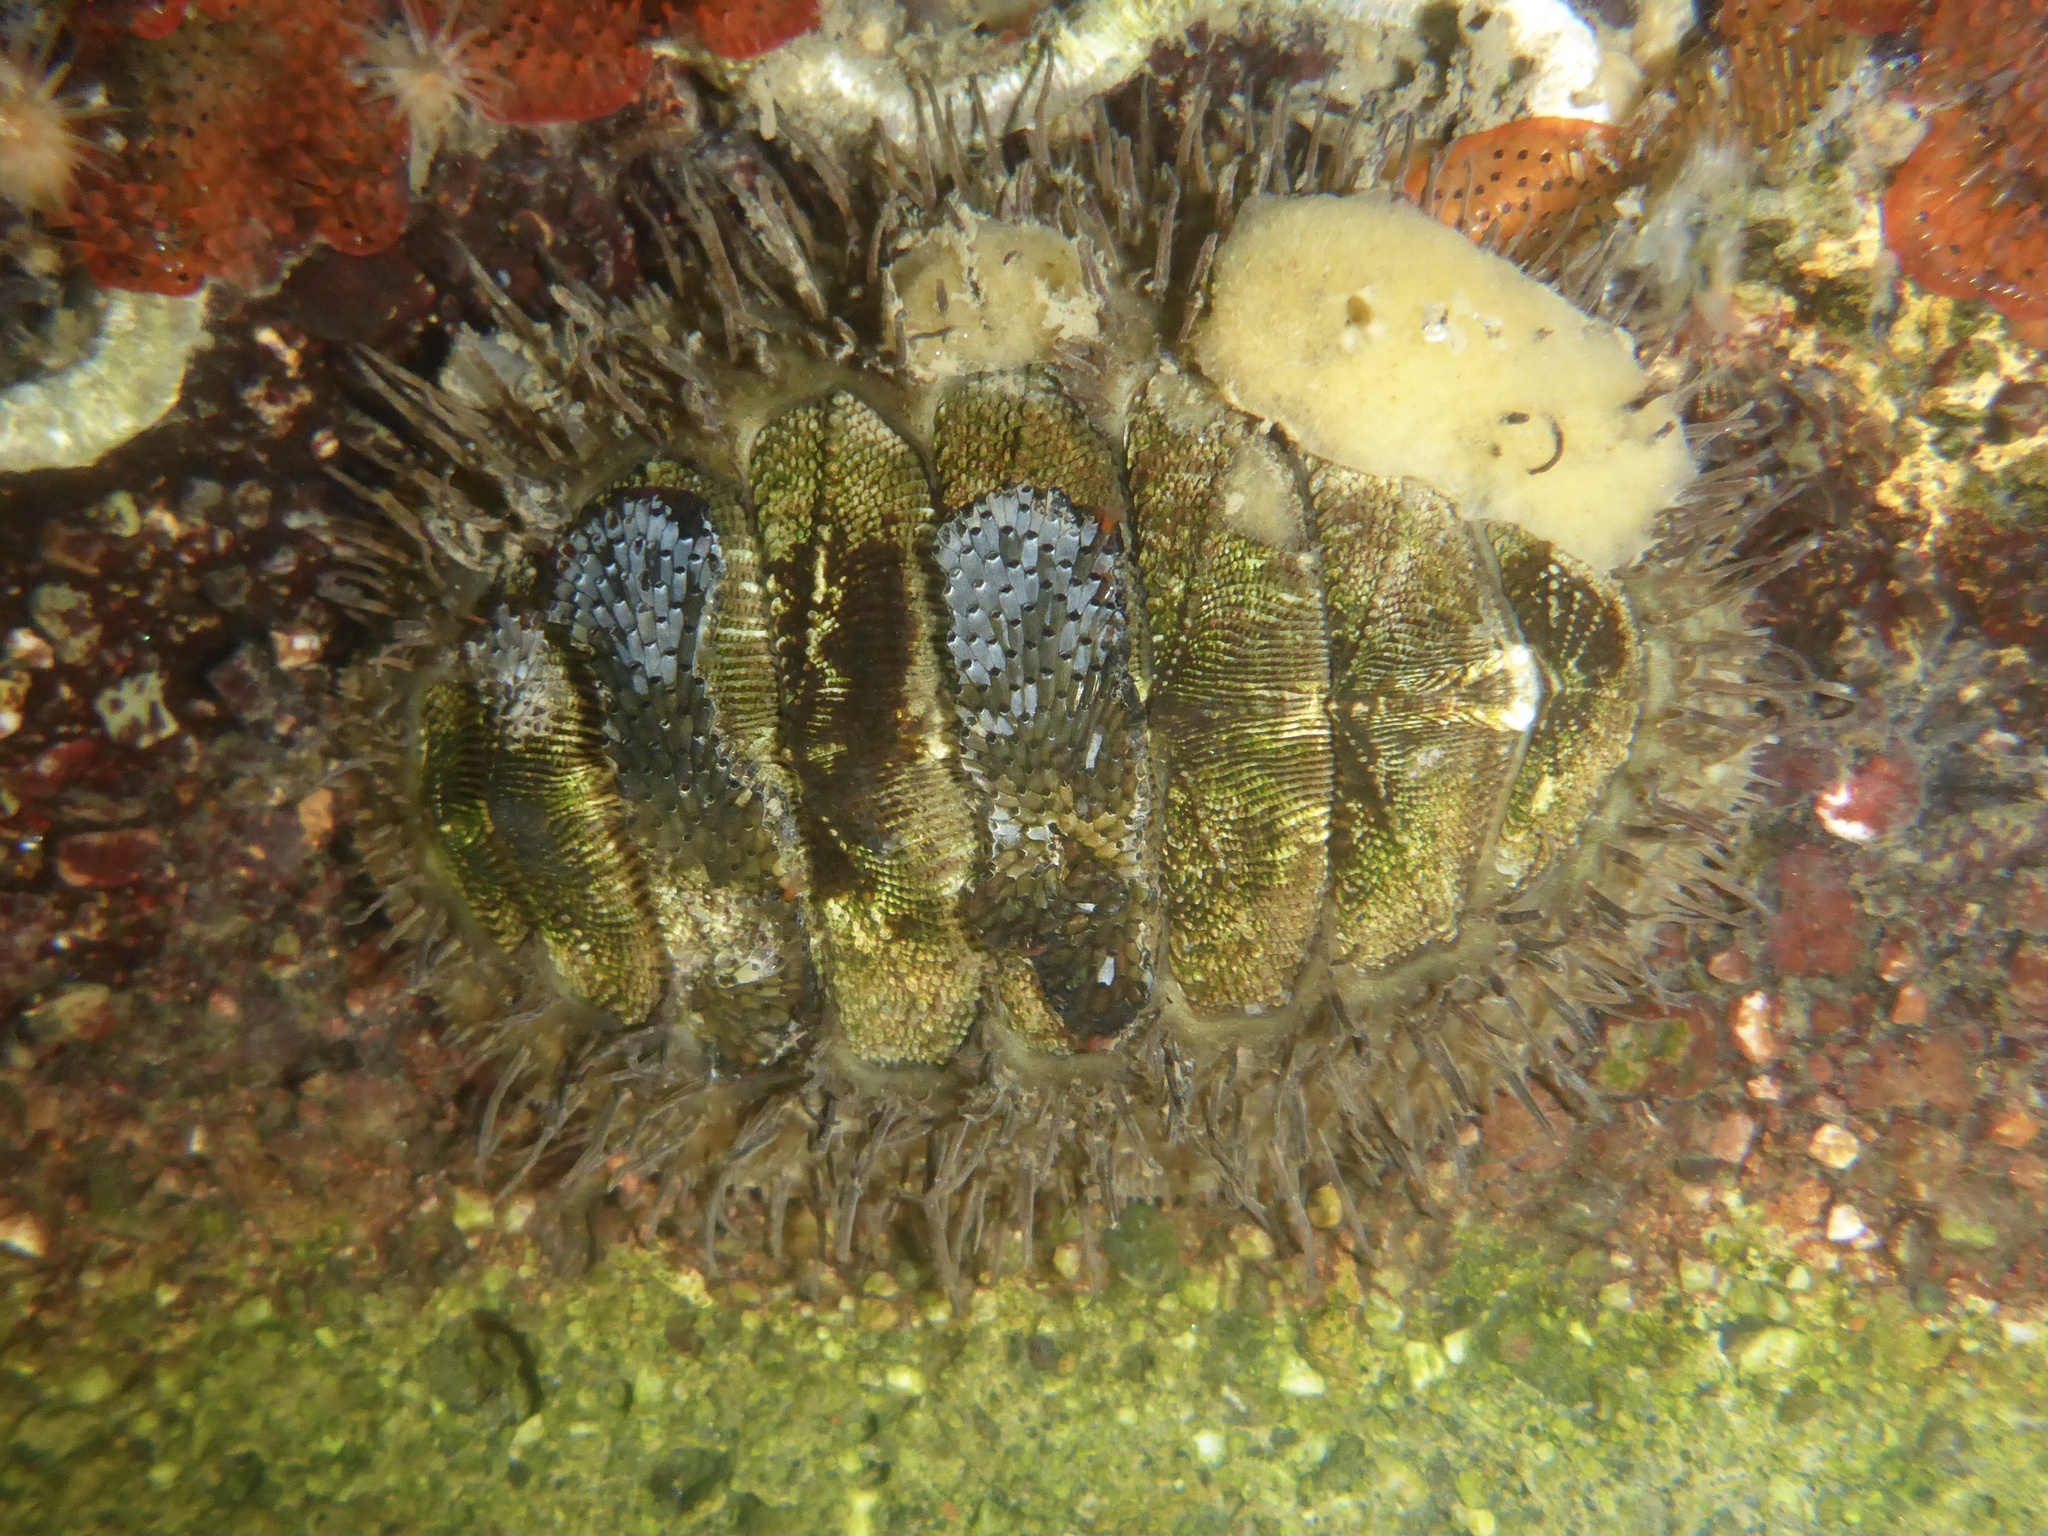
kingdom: Animalia
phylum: Mollusca
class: Polyplacophora
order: Chitonida
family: Mopaliidae
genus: Mopalia
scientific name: Mopalia muscosa
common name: Mossy chiton
